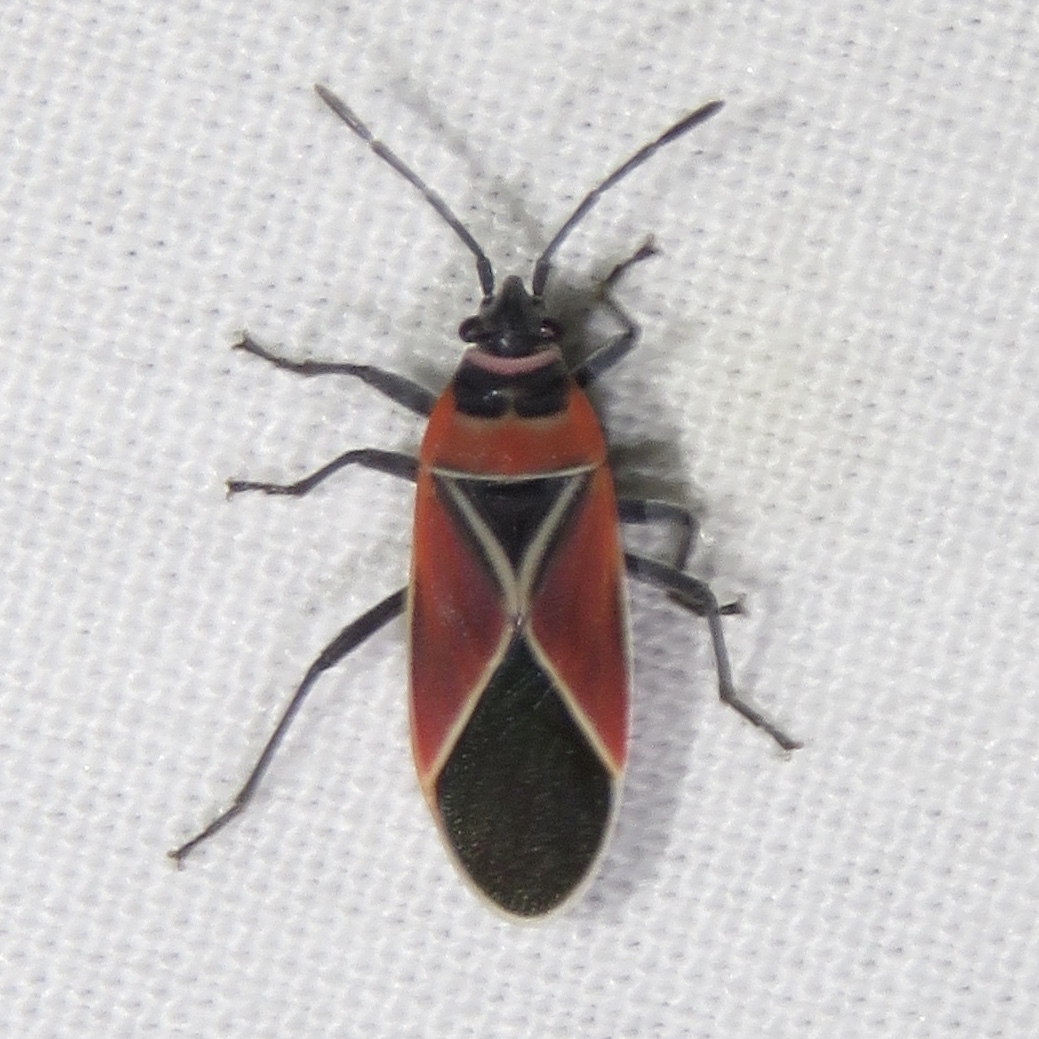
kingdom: Animalia
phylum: Arthropoda
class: Insecta
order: Hemiptera
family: Lygaeidae
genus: Neacoryphus
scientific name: Neacoryphus bicrucis
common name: Lygaeid bug
